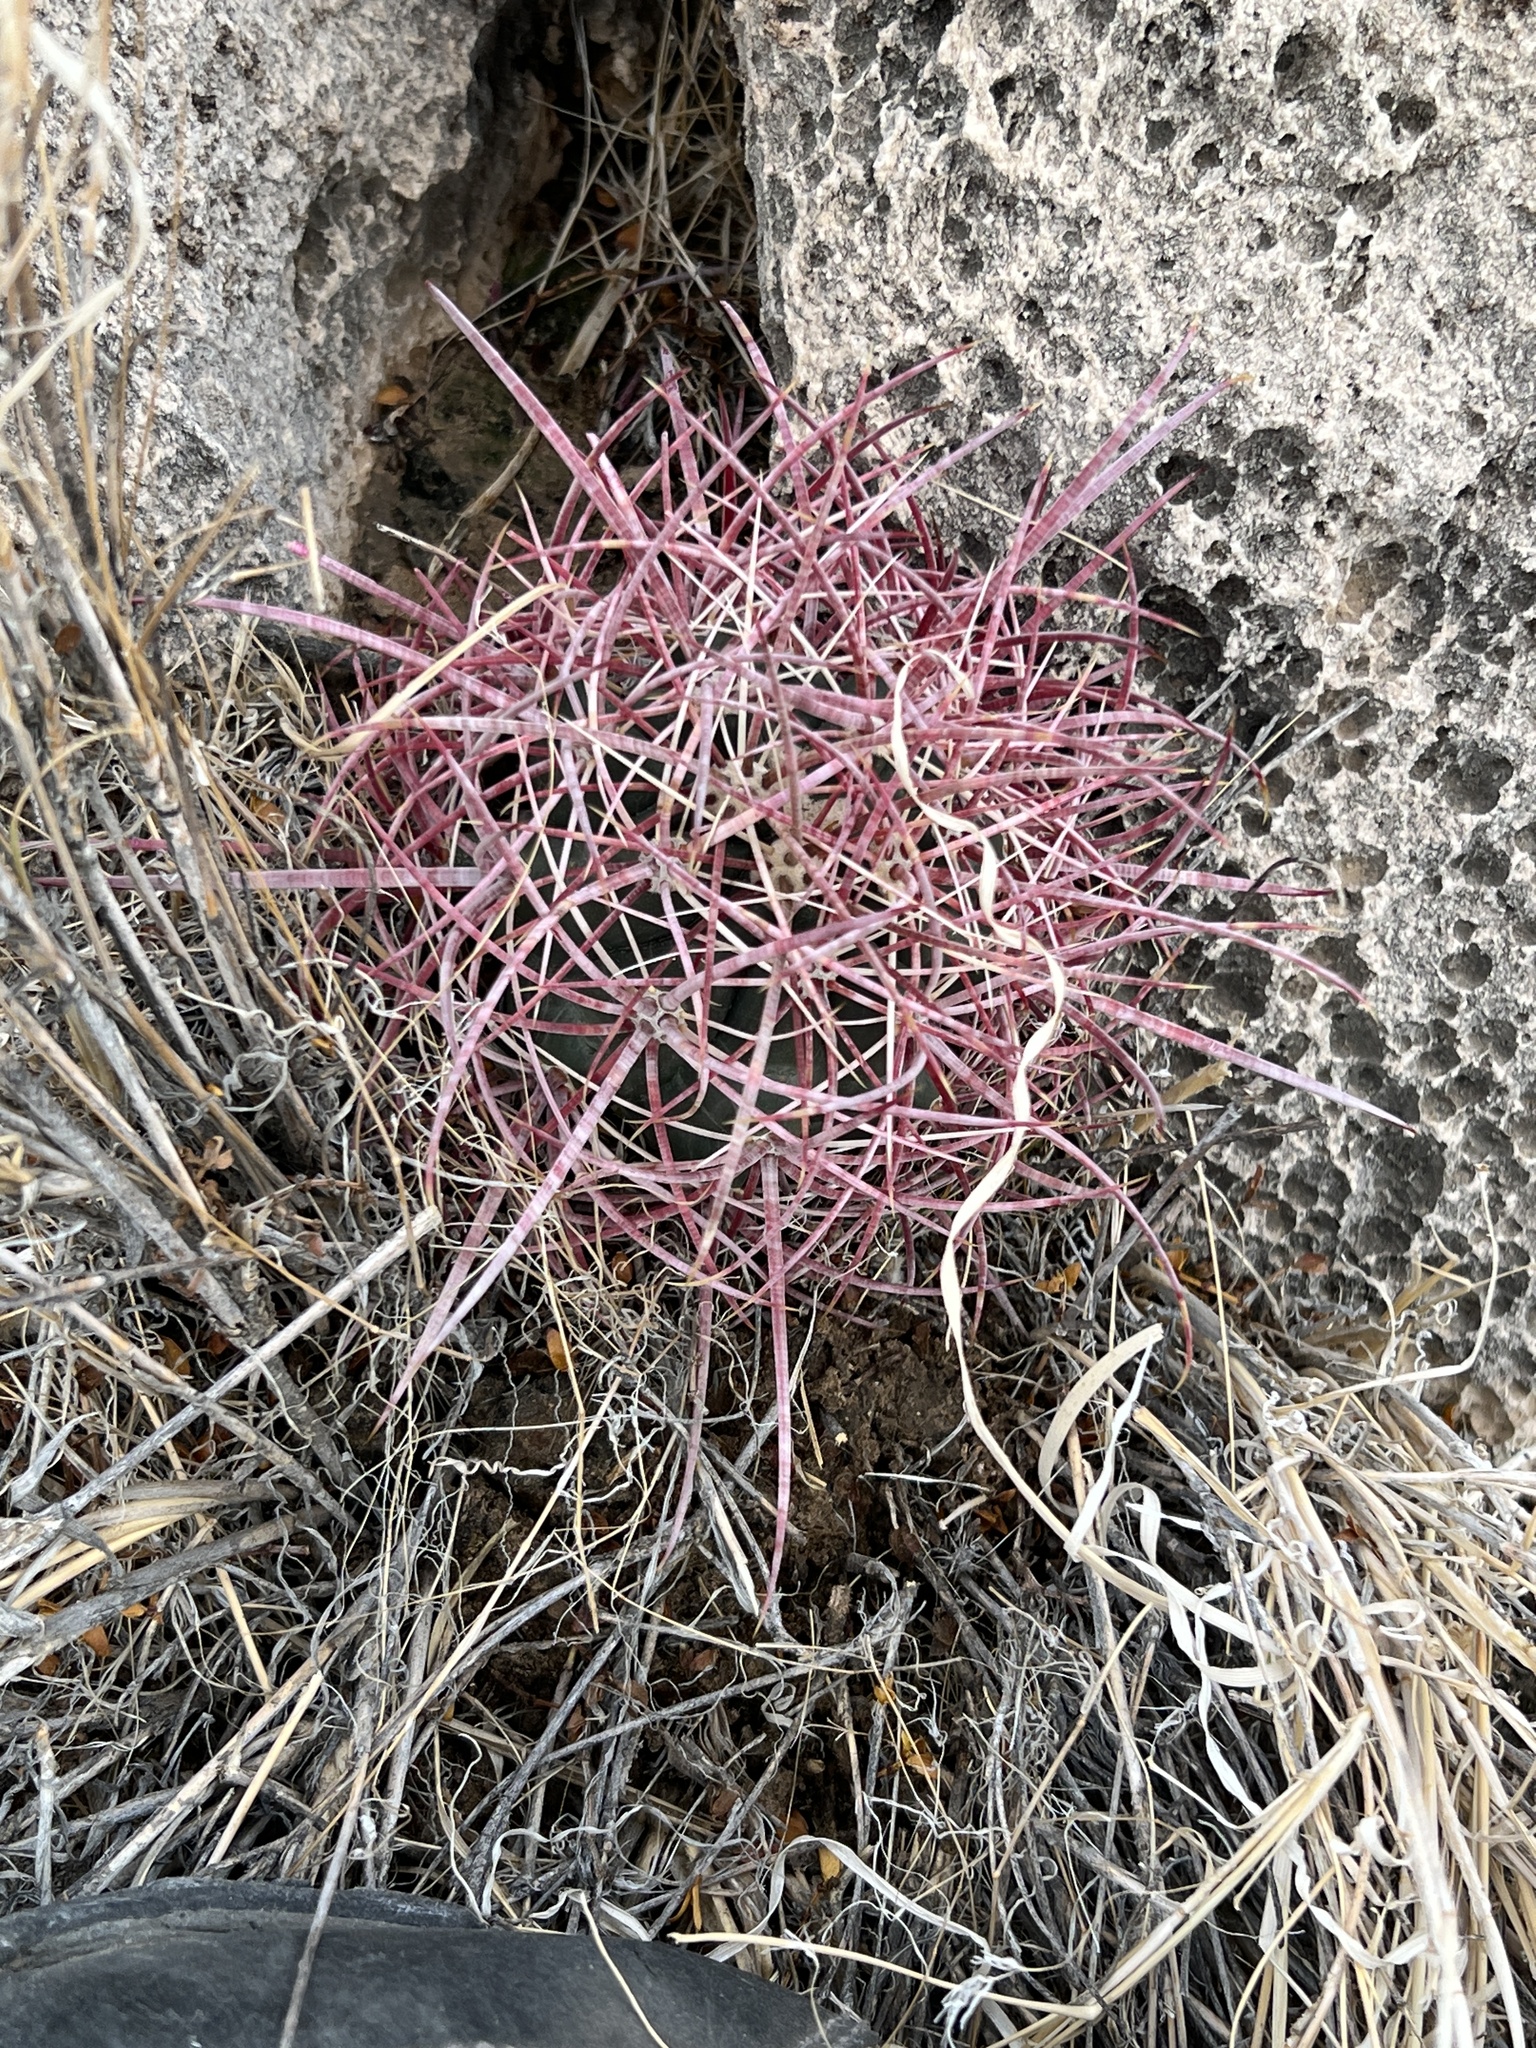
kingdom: Plantae
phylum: Tracheophyta
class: Magnoliopsida
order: Caryophyllales
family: Cactaceae
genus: Ferocactus
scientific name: Ferocactus cylindraceus
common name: California barrel cactus
